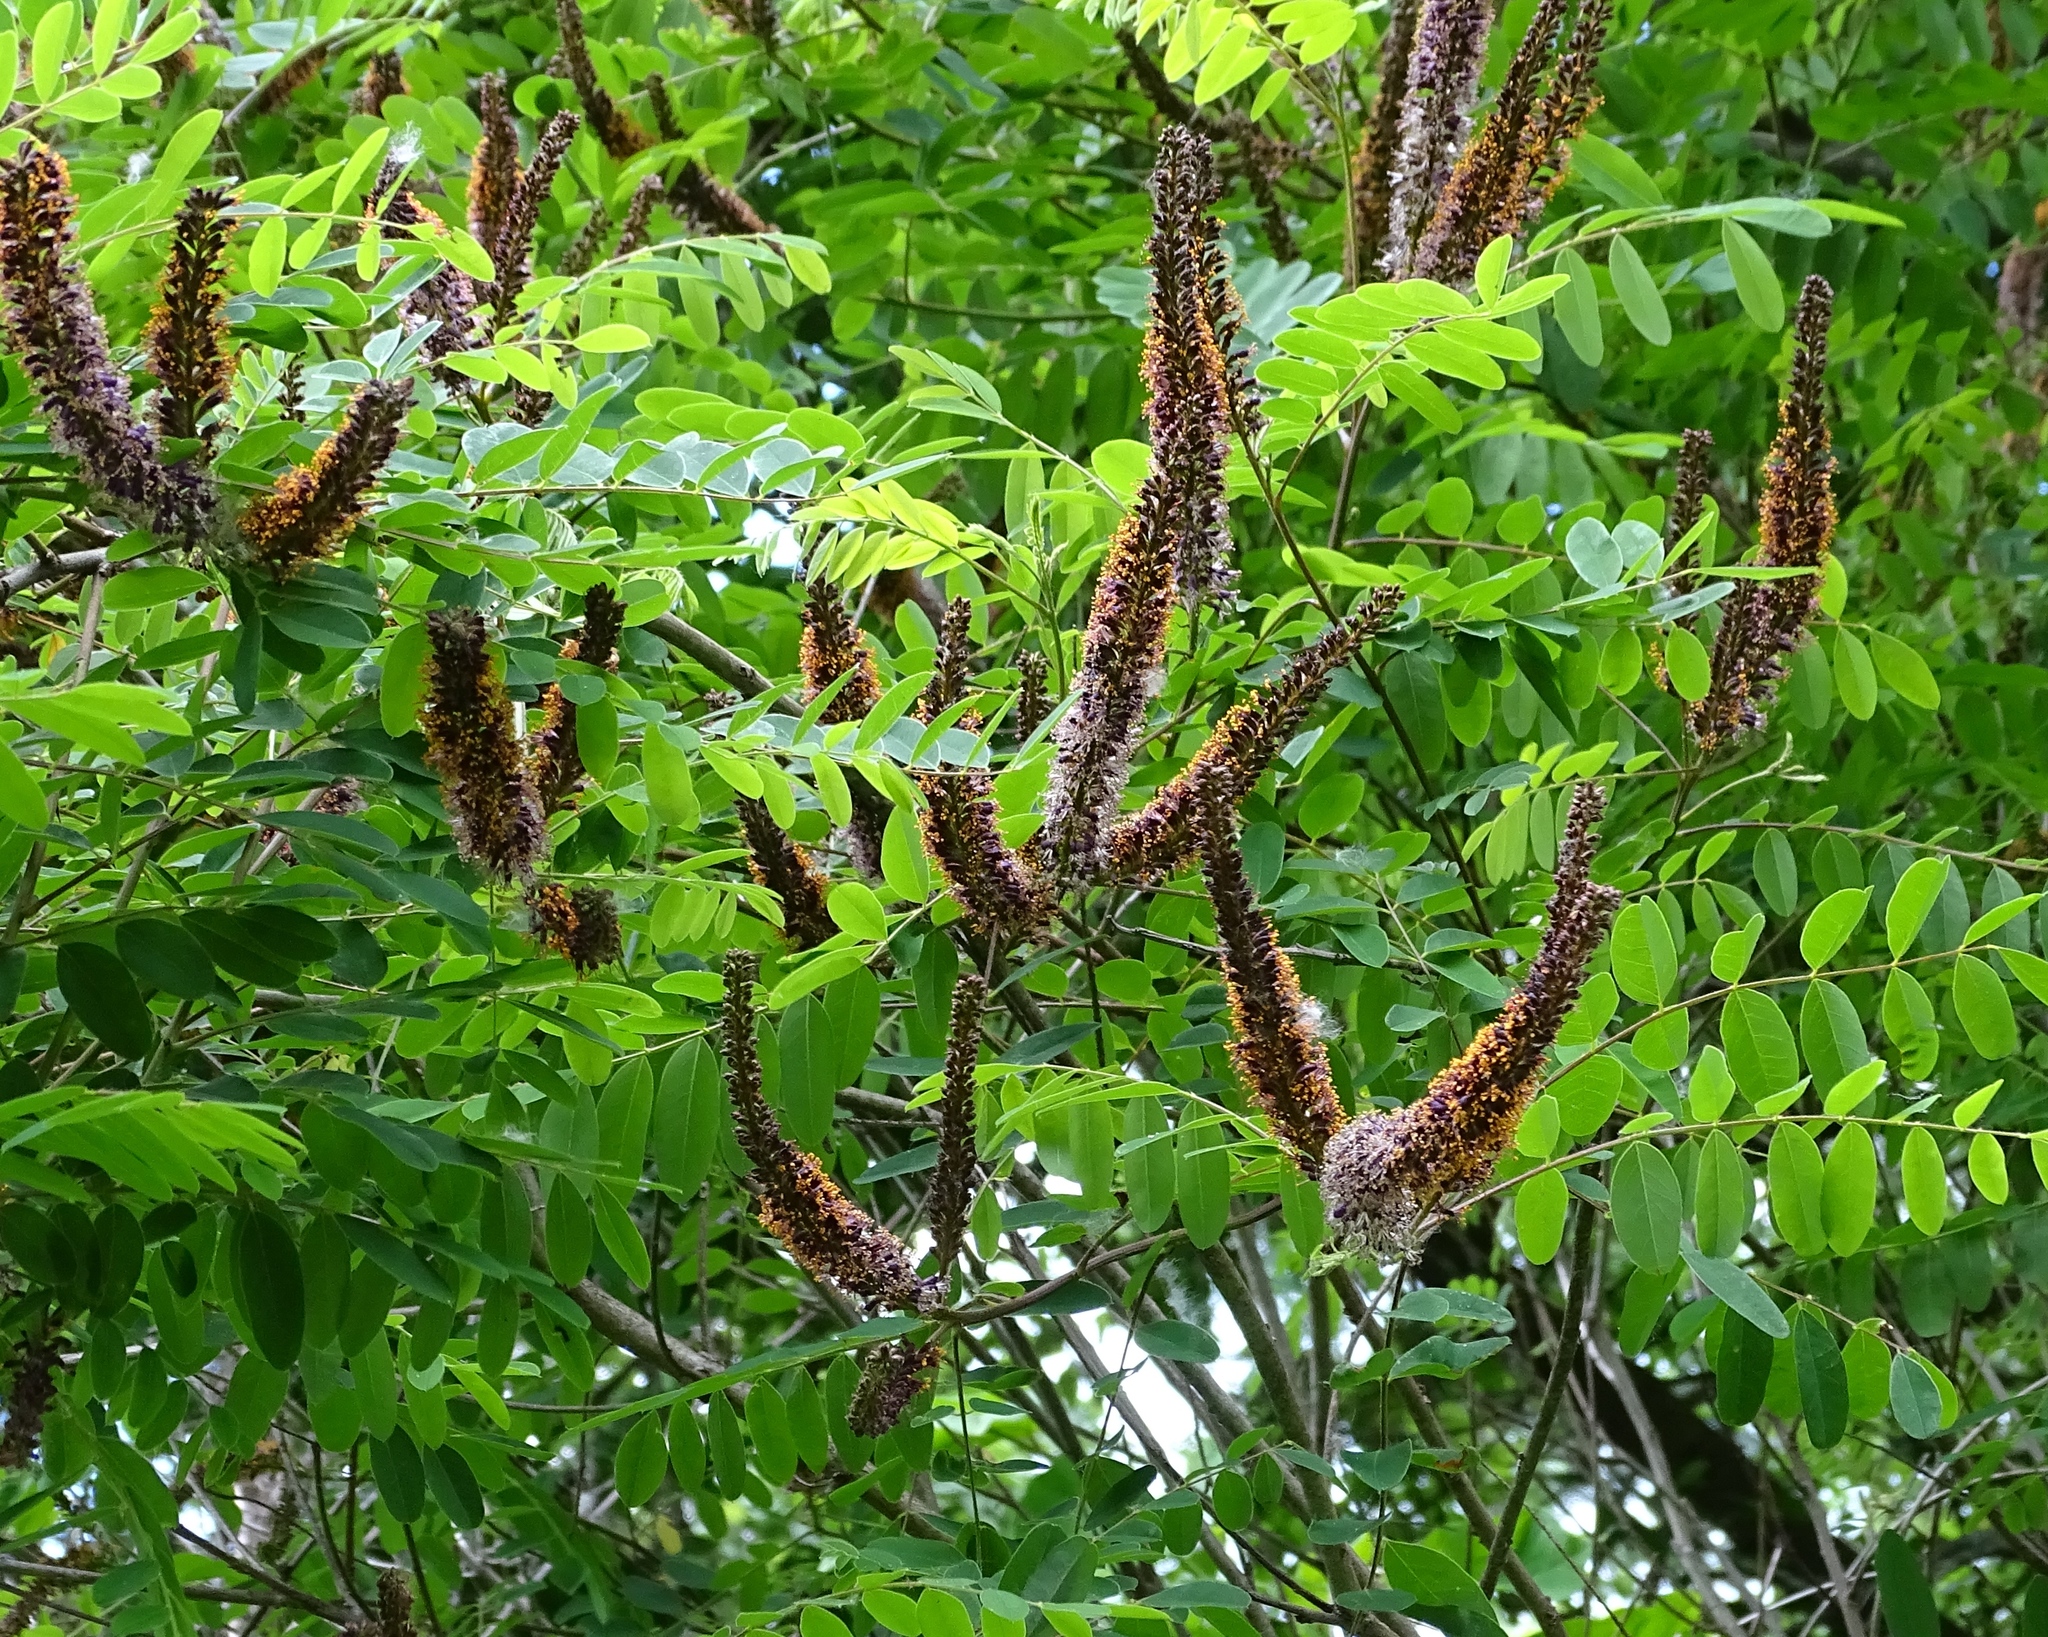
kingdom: Plantae
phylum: Tracheophyta
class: Magnoliopsida
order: Fabales
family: Fabaceae
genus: Amorpha
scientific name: Amorpha fruticosa
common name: False indigo
